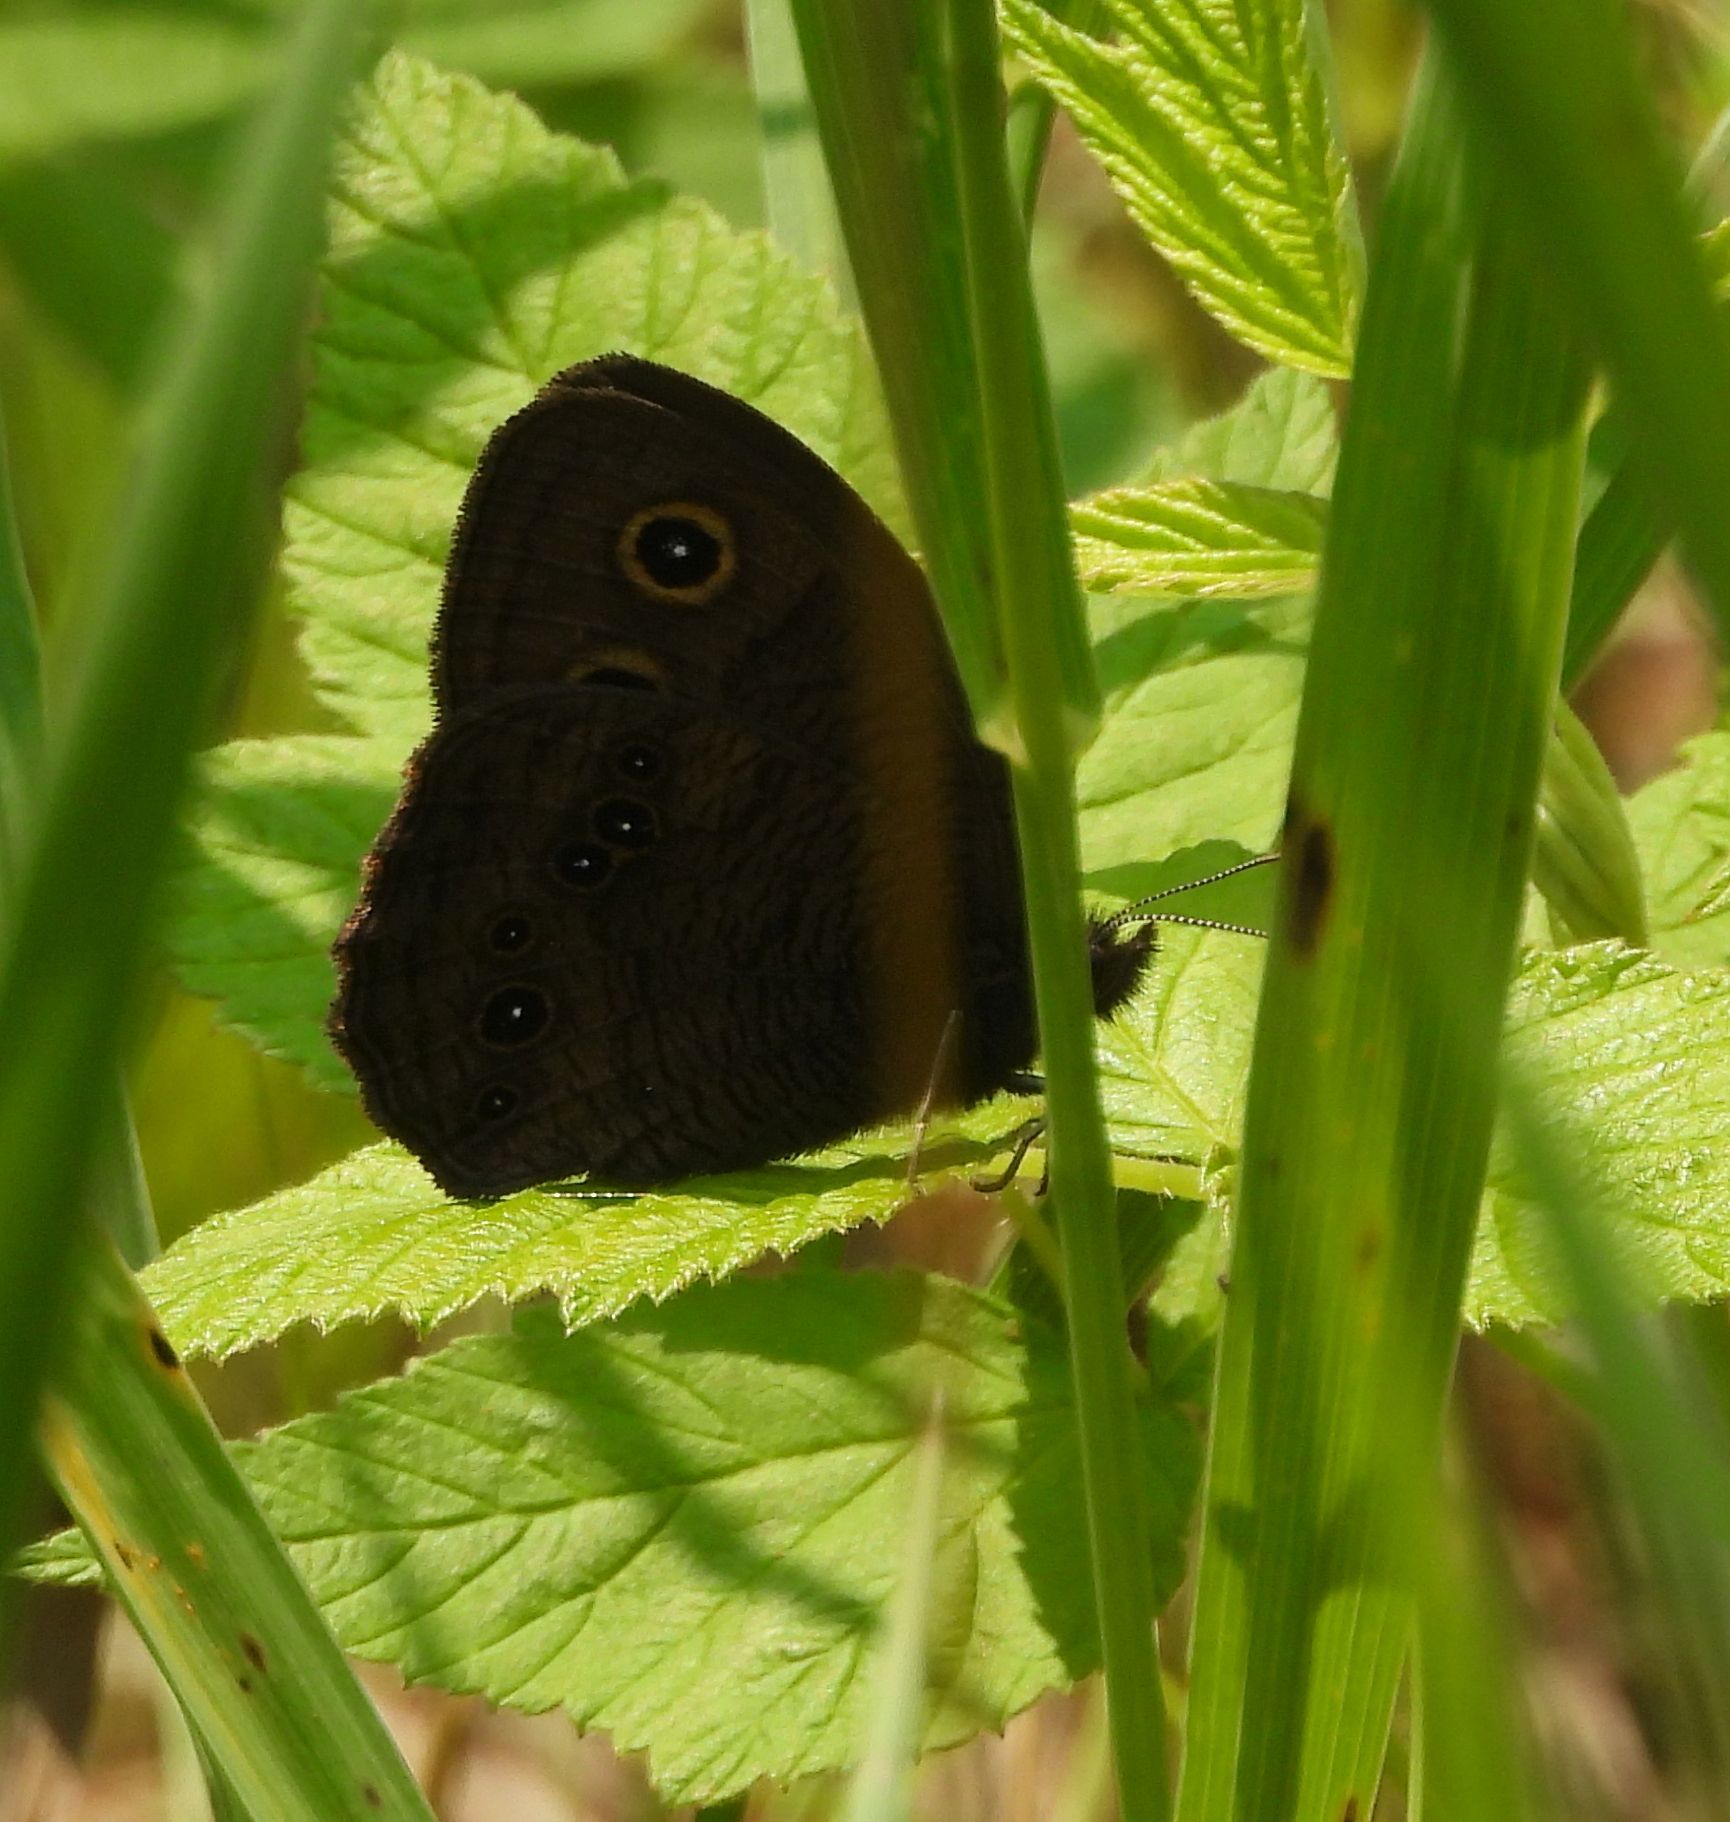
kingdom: Animalia
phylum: Arthropoda
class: Insecta
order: Lepidoptera
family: Nymphalidae
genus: Cercyonis
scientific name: Cercyonis pegala
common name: Common wood-nymph
